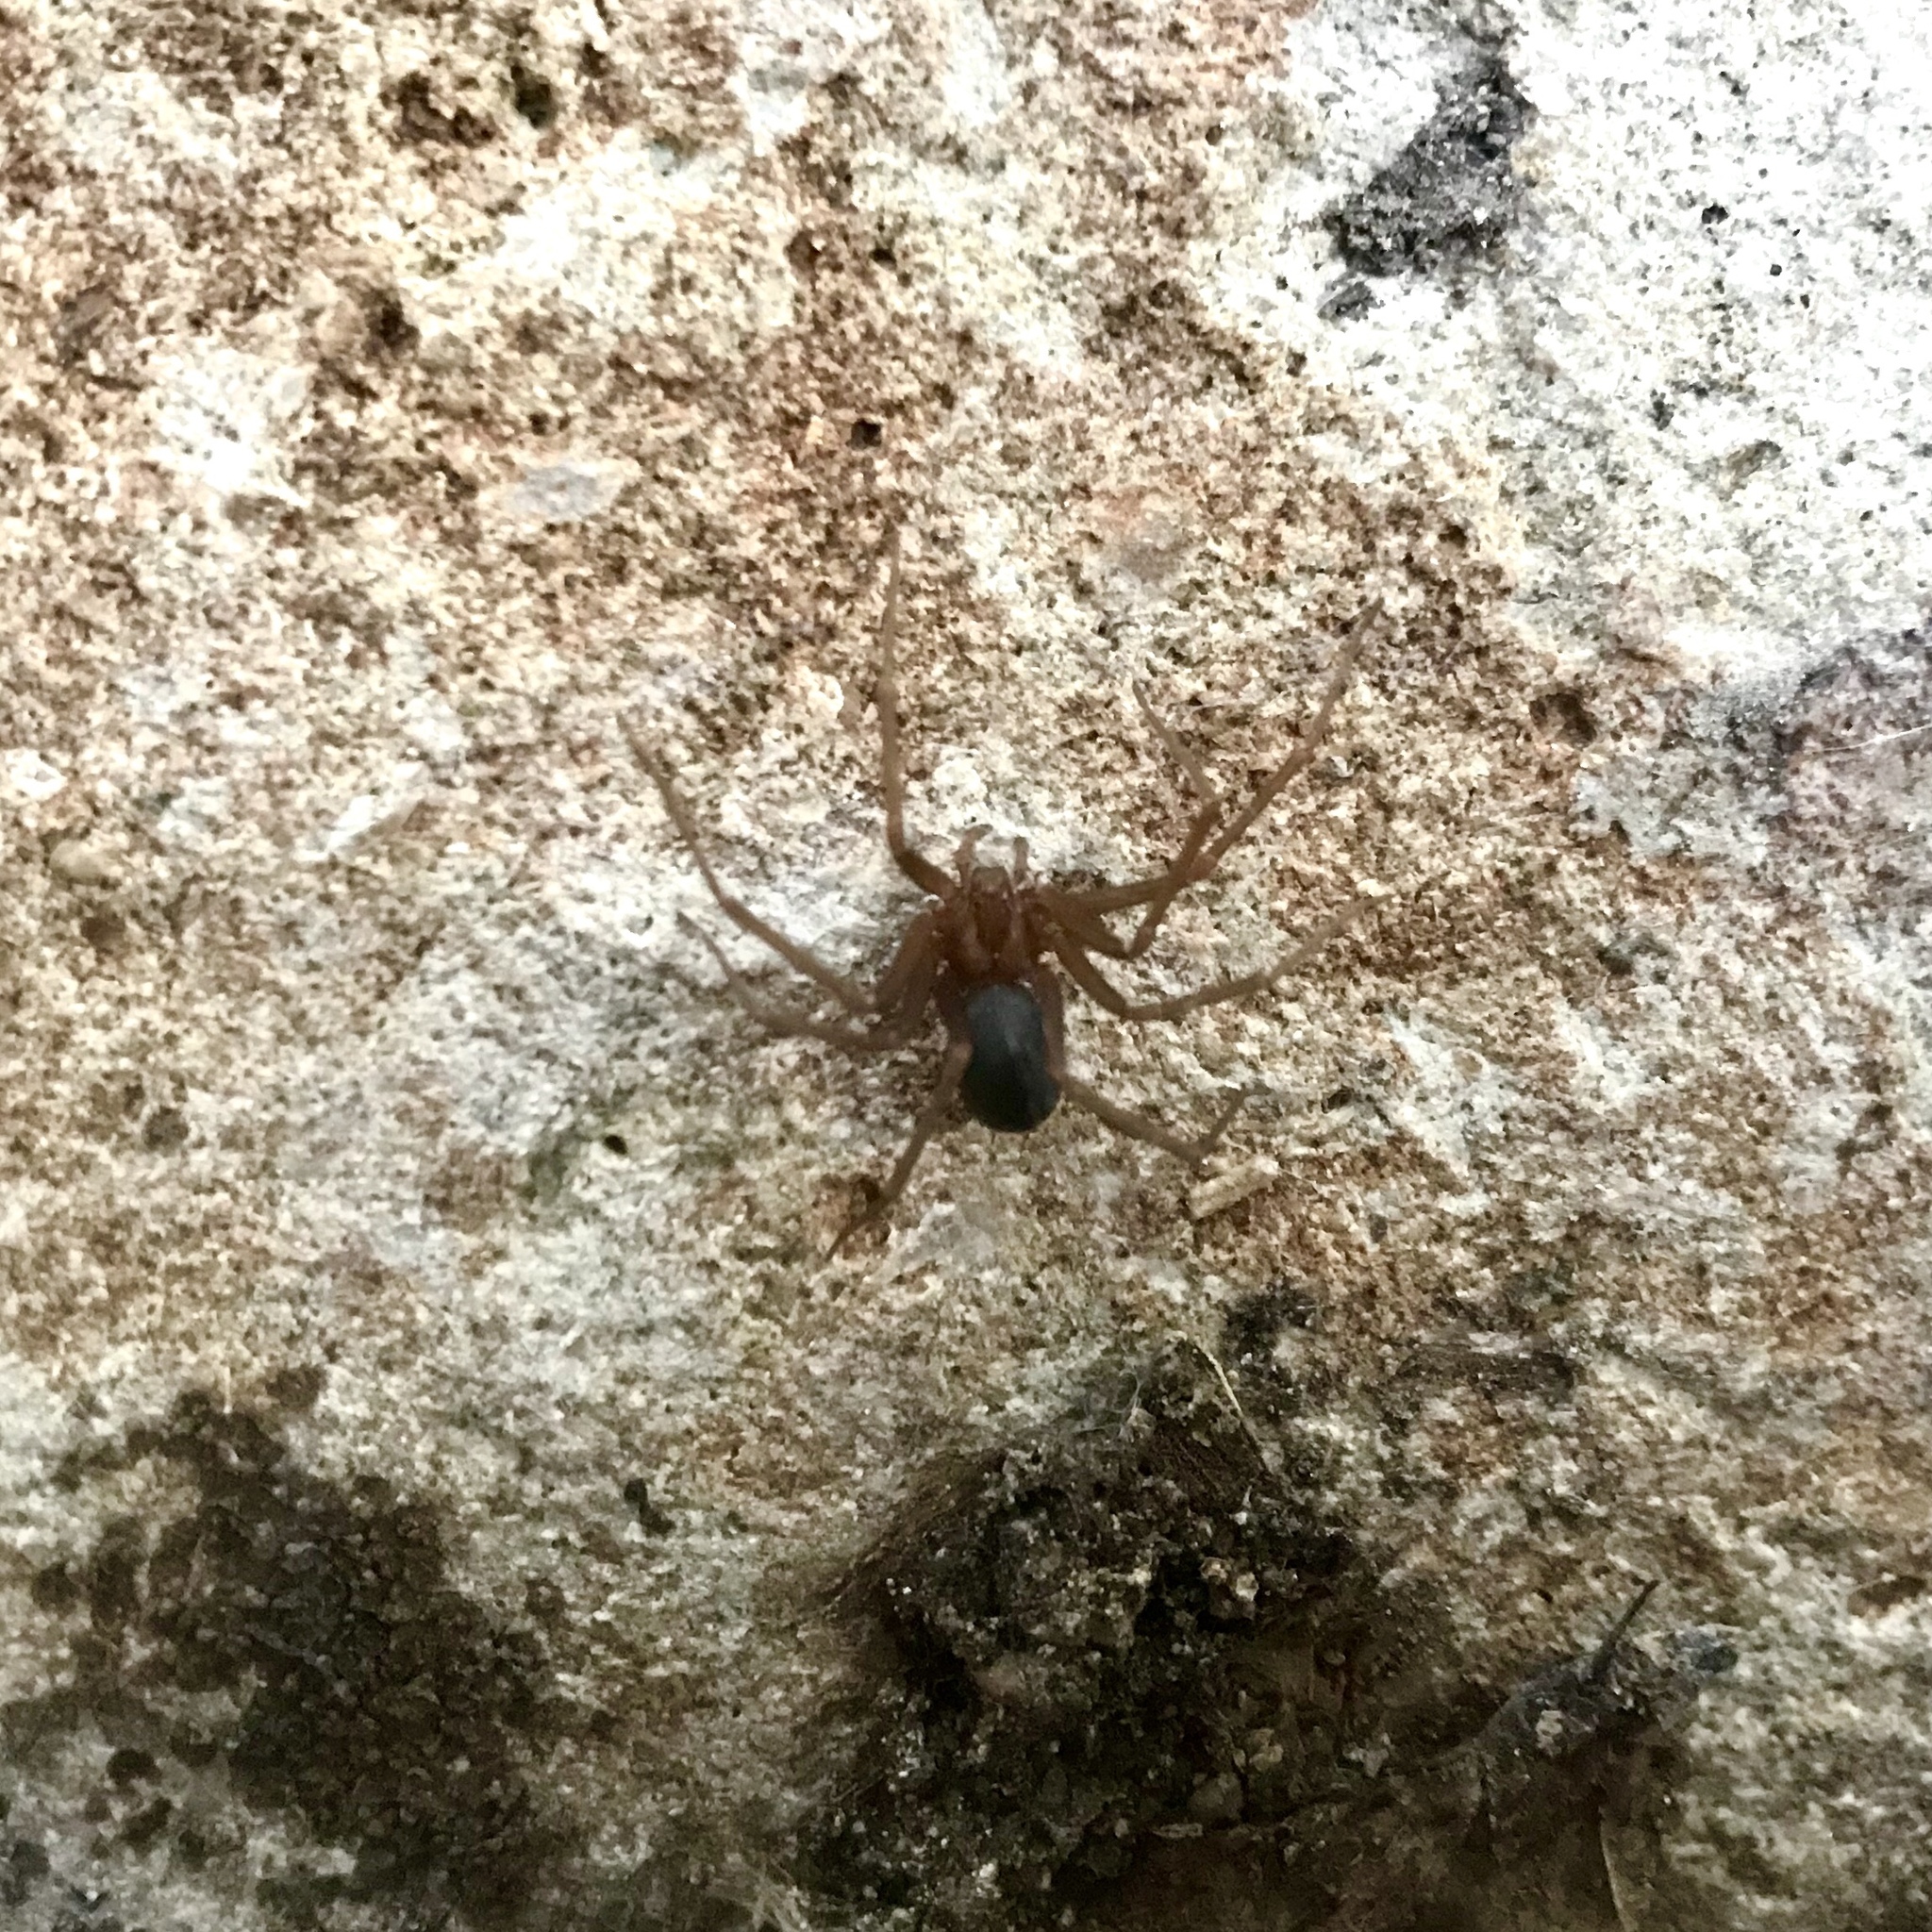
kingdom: Animalia
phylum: Arthropoda
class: Arachnida
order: Araneae
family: Sicariidae
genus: Loxosceles
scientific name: Loxosceles tehuana
